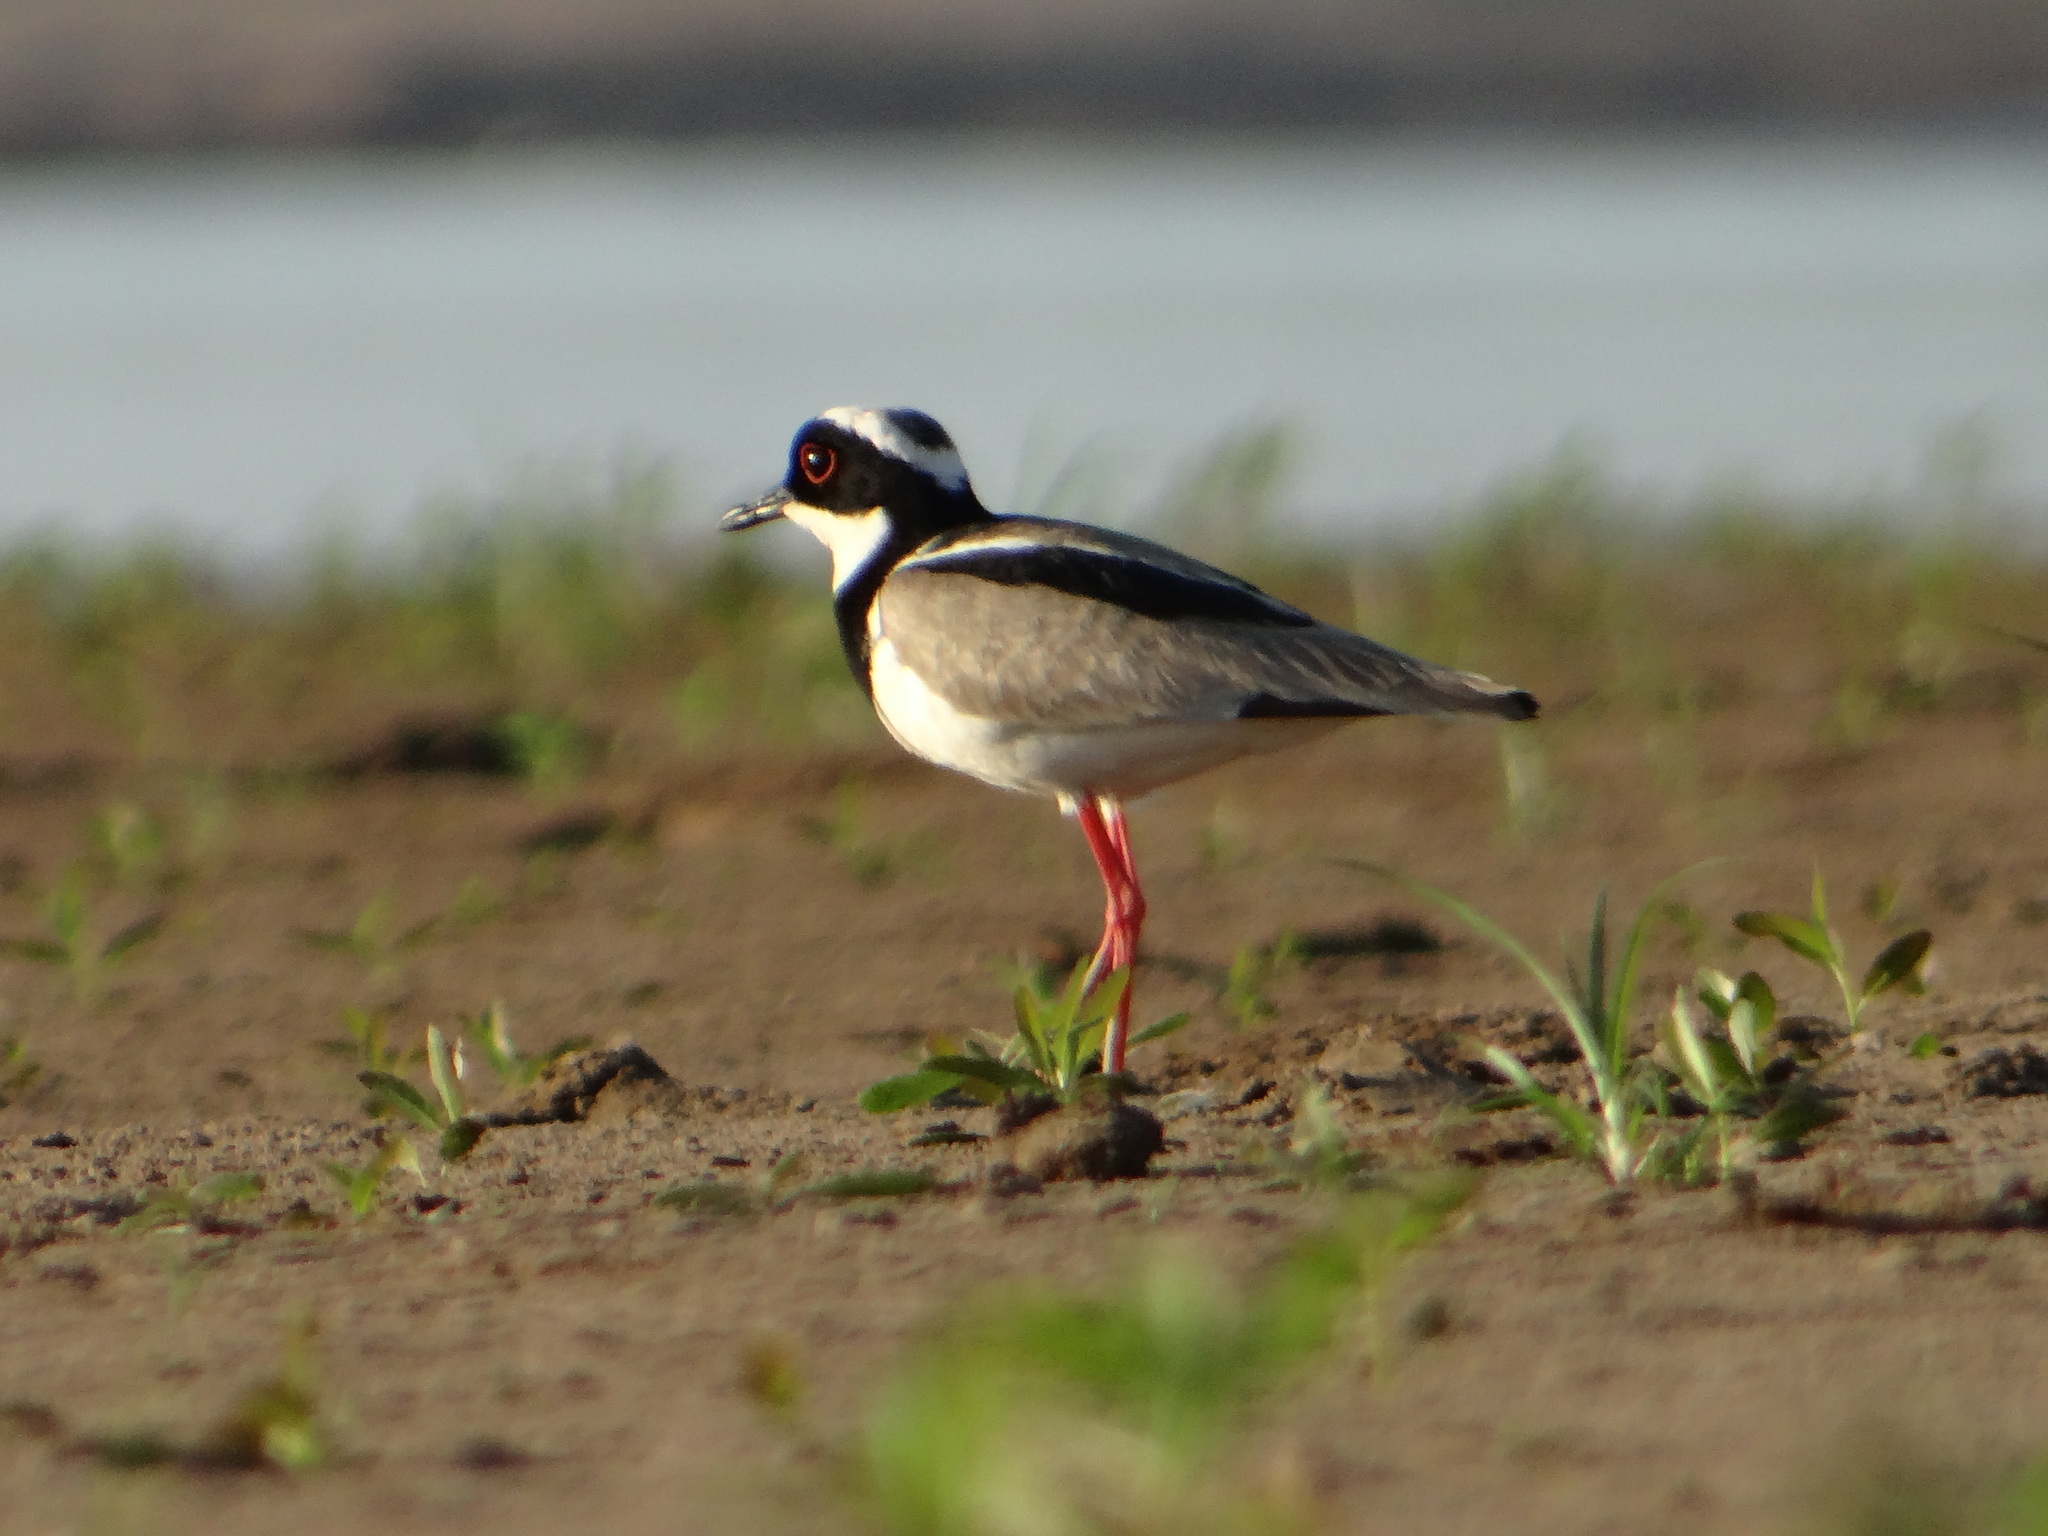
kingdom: Animalia
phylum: Chordata
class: Aves
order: Charadriiformes
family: Charadriidae
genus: Hoploxypterus
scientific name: Hoploxypterus cayanus
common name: Pied plover
